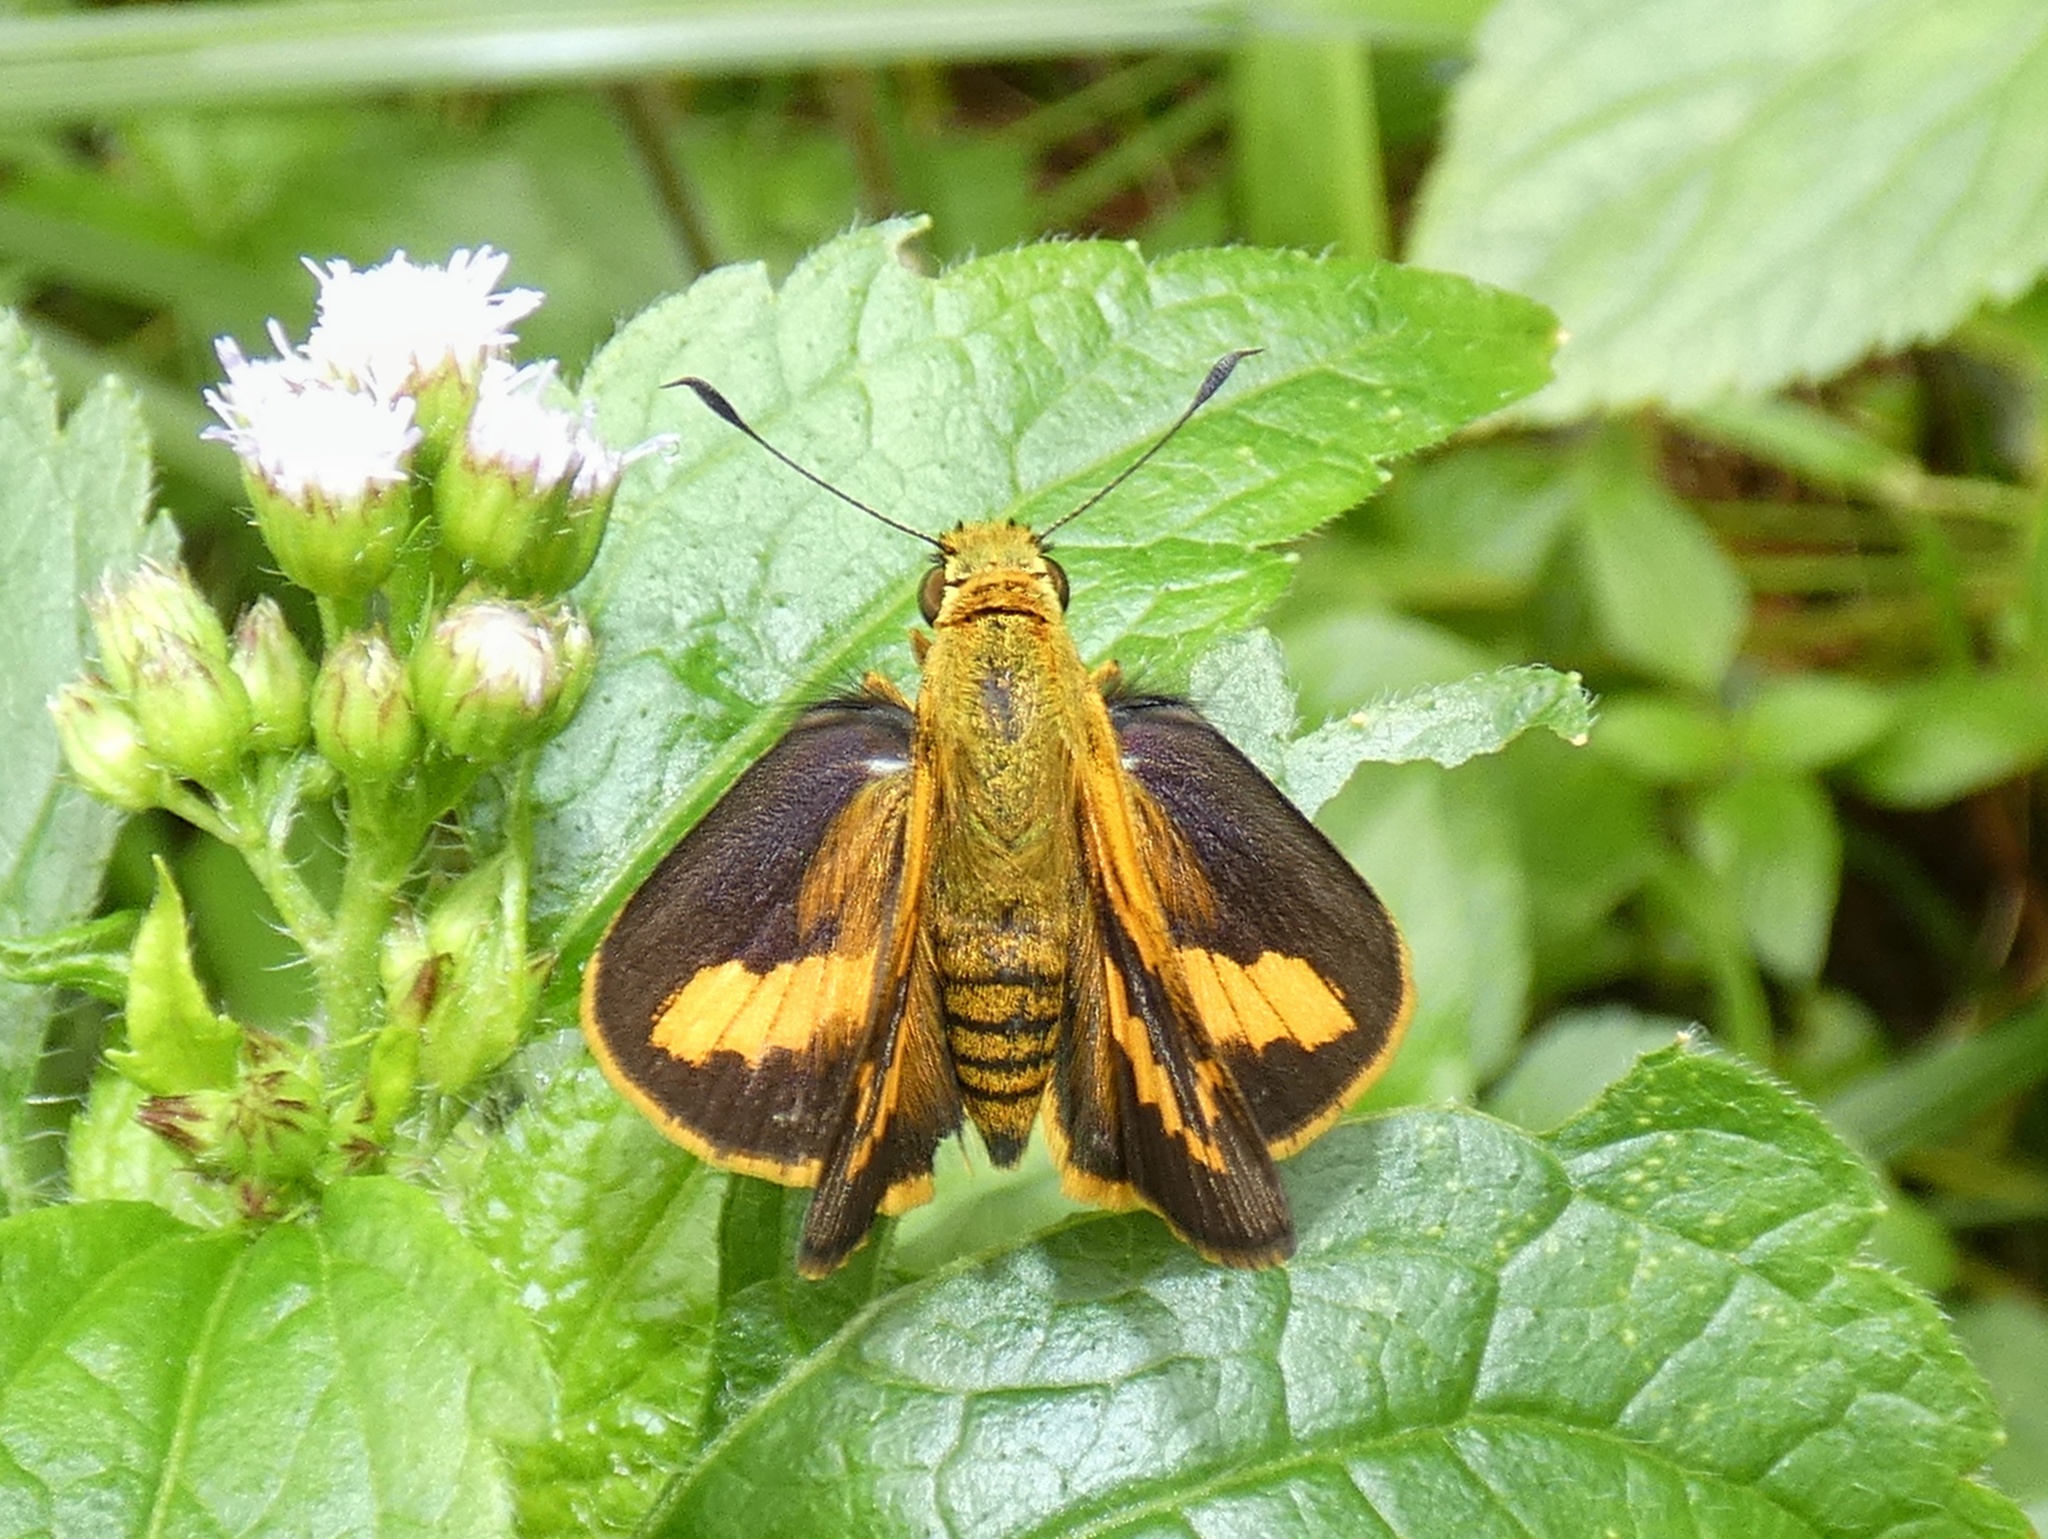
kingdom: Animalia
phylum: Arthropoda
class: Insecta
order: Lepidoptera
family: Hesperiidae
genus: Telicota
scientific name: Telicota paceka
